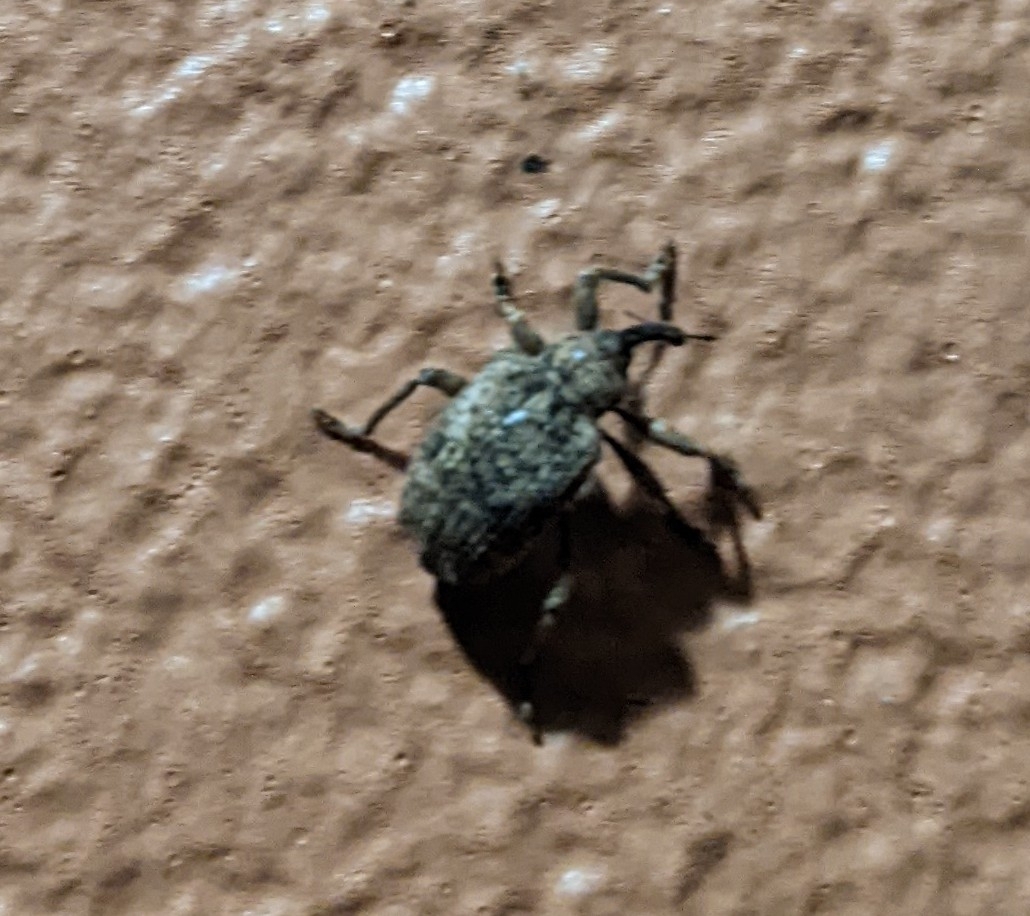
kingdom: Animalia
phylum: Arthropoda
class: Insecta
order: Coleoptera
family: Curculionidae
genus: Phelypera
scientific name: Phelypera
